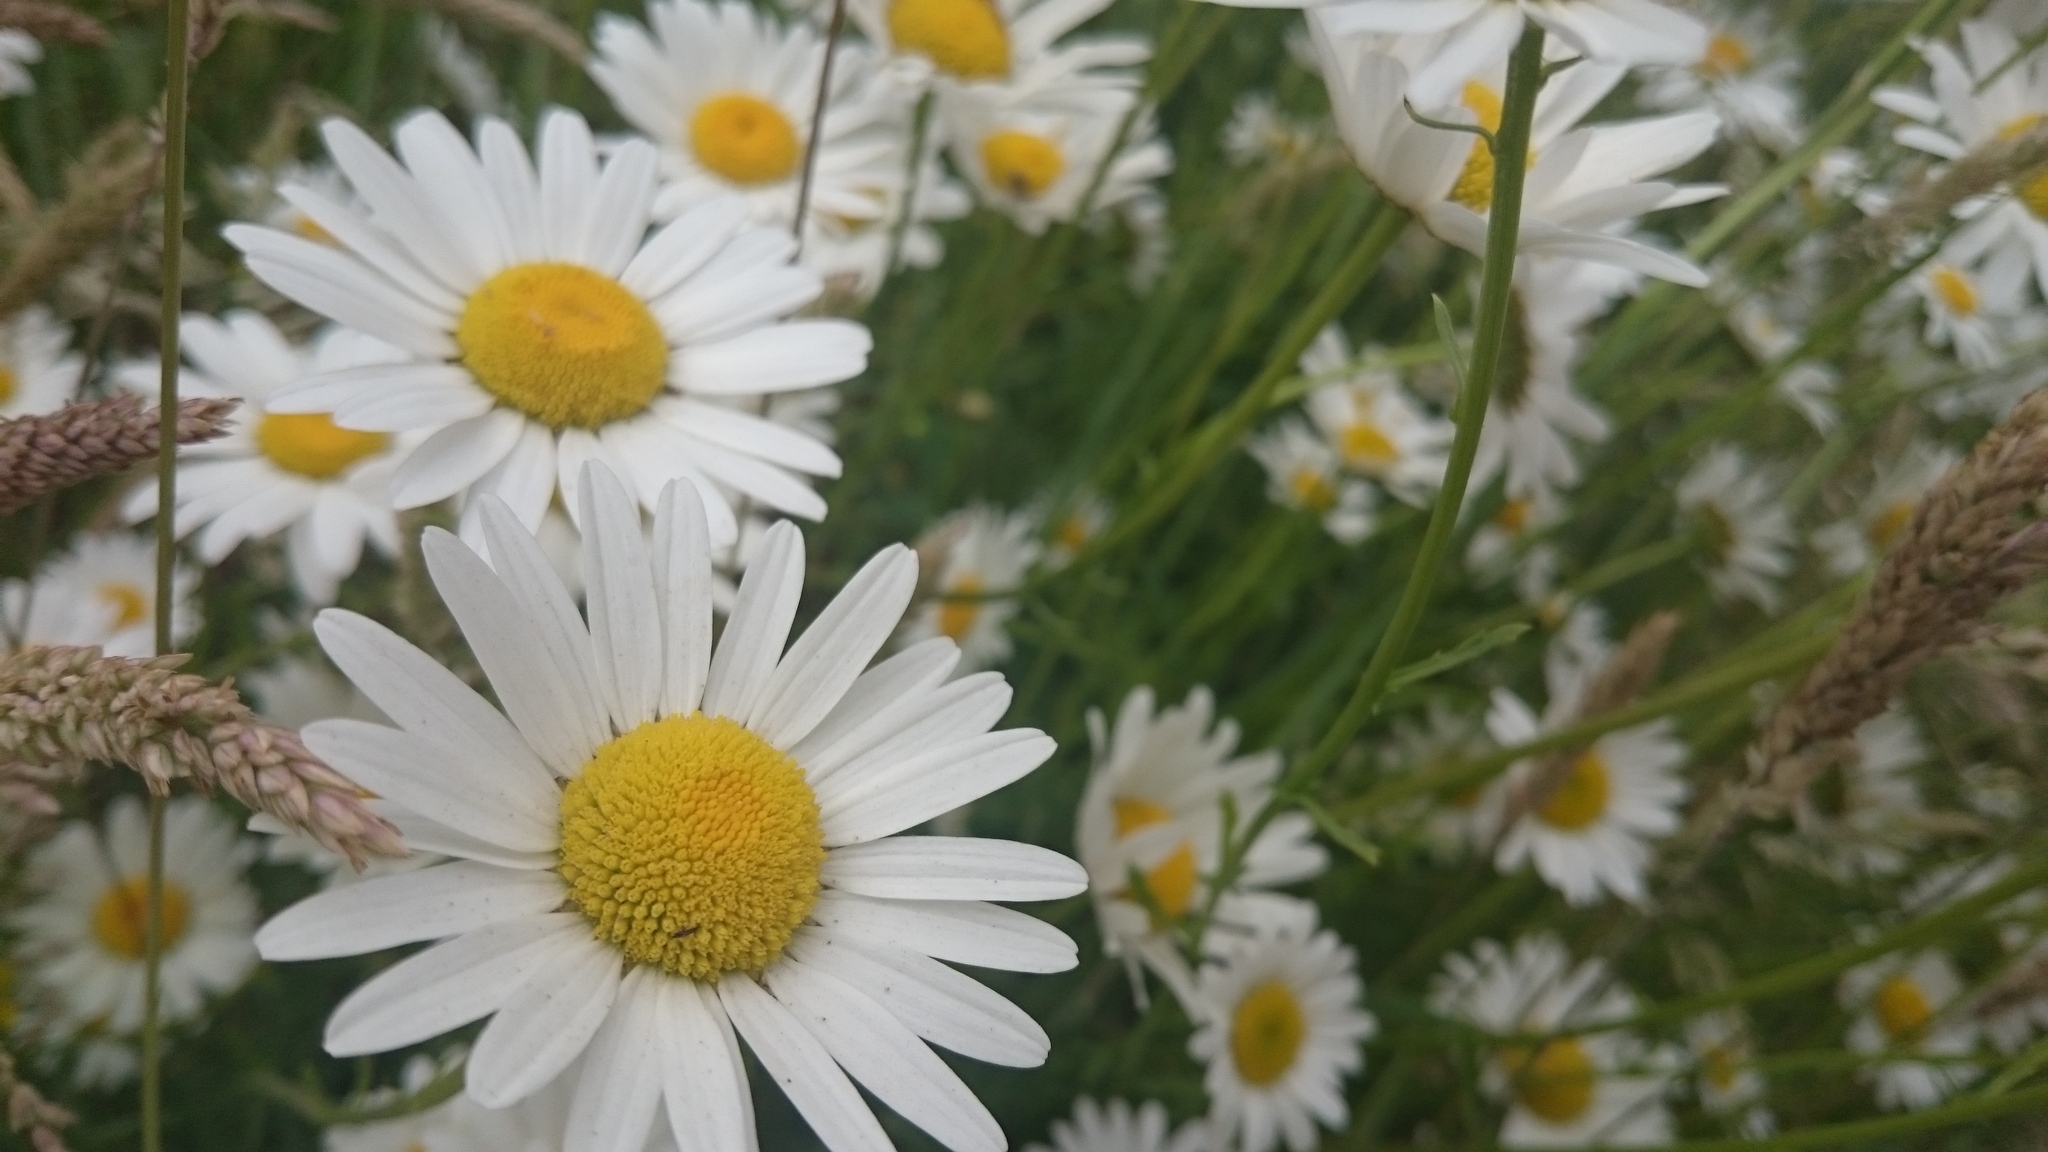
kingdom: Plantae
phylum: Tracheophyta
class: Magnoliopsida
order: Asterales
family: Asteraceae
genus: Leucanthemum
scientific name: Leucanthemum vulgare
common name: Oxeye daisy
